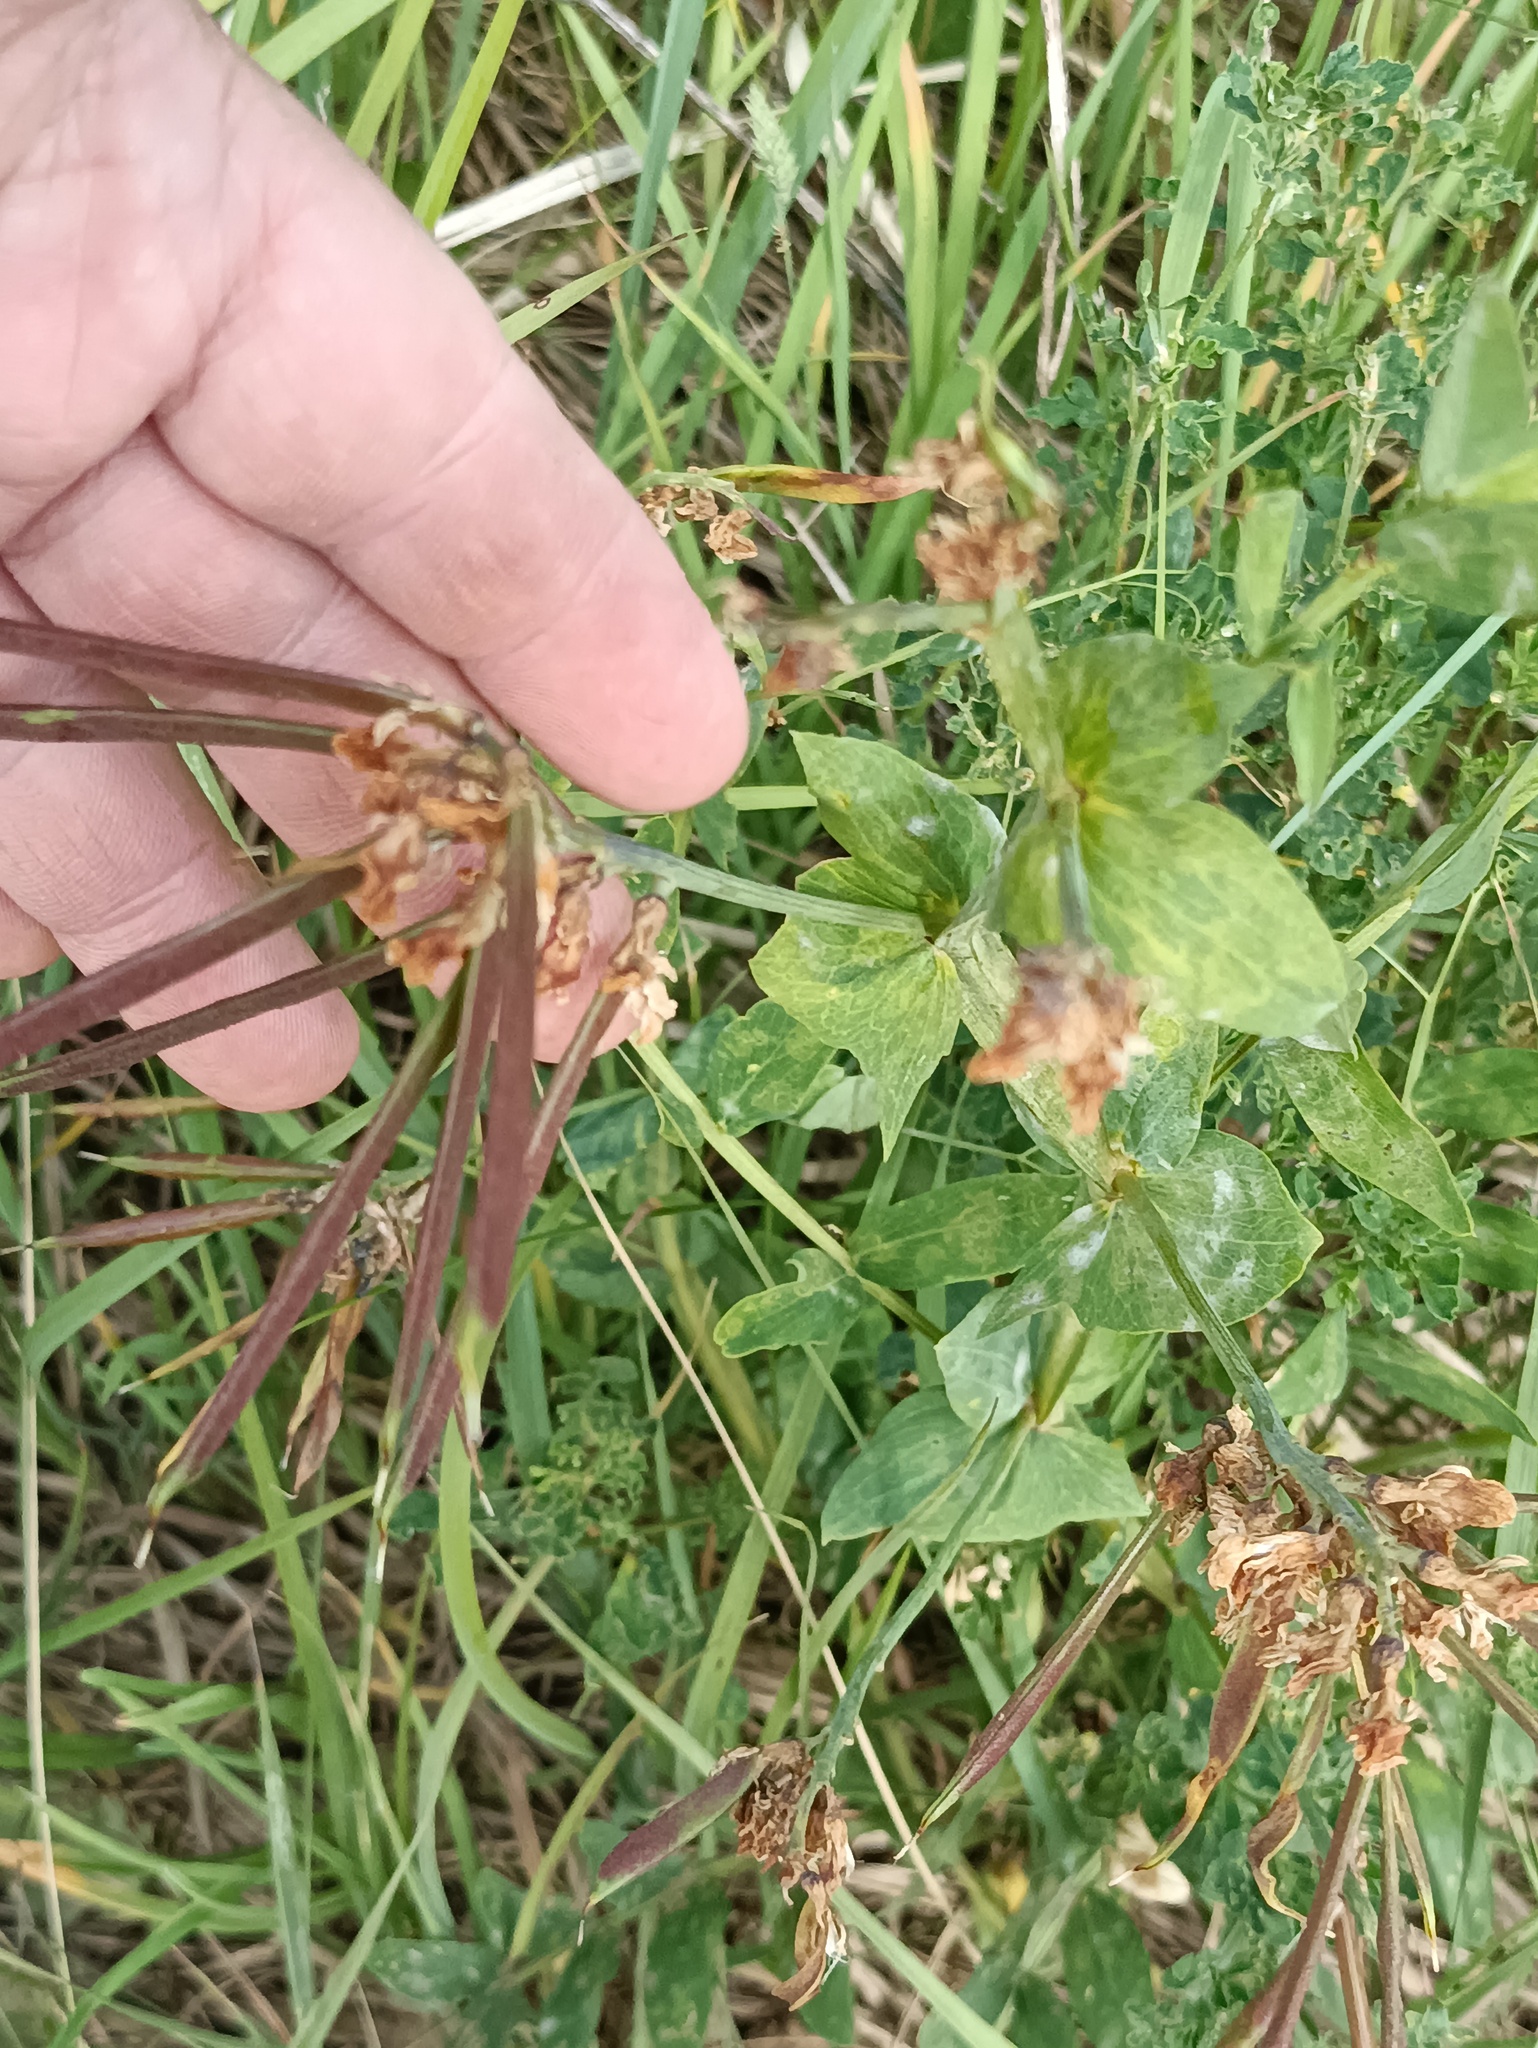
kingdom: Plantae
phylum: Tracheophyta
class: Magnoliopsida
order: Fabales
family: Fabaceae
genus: Lathyrus
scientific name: Lathyrus pisiformis
